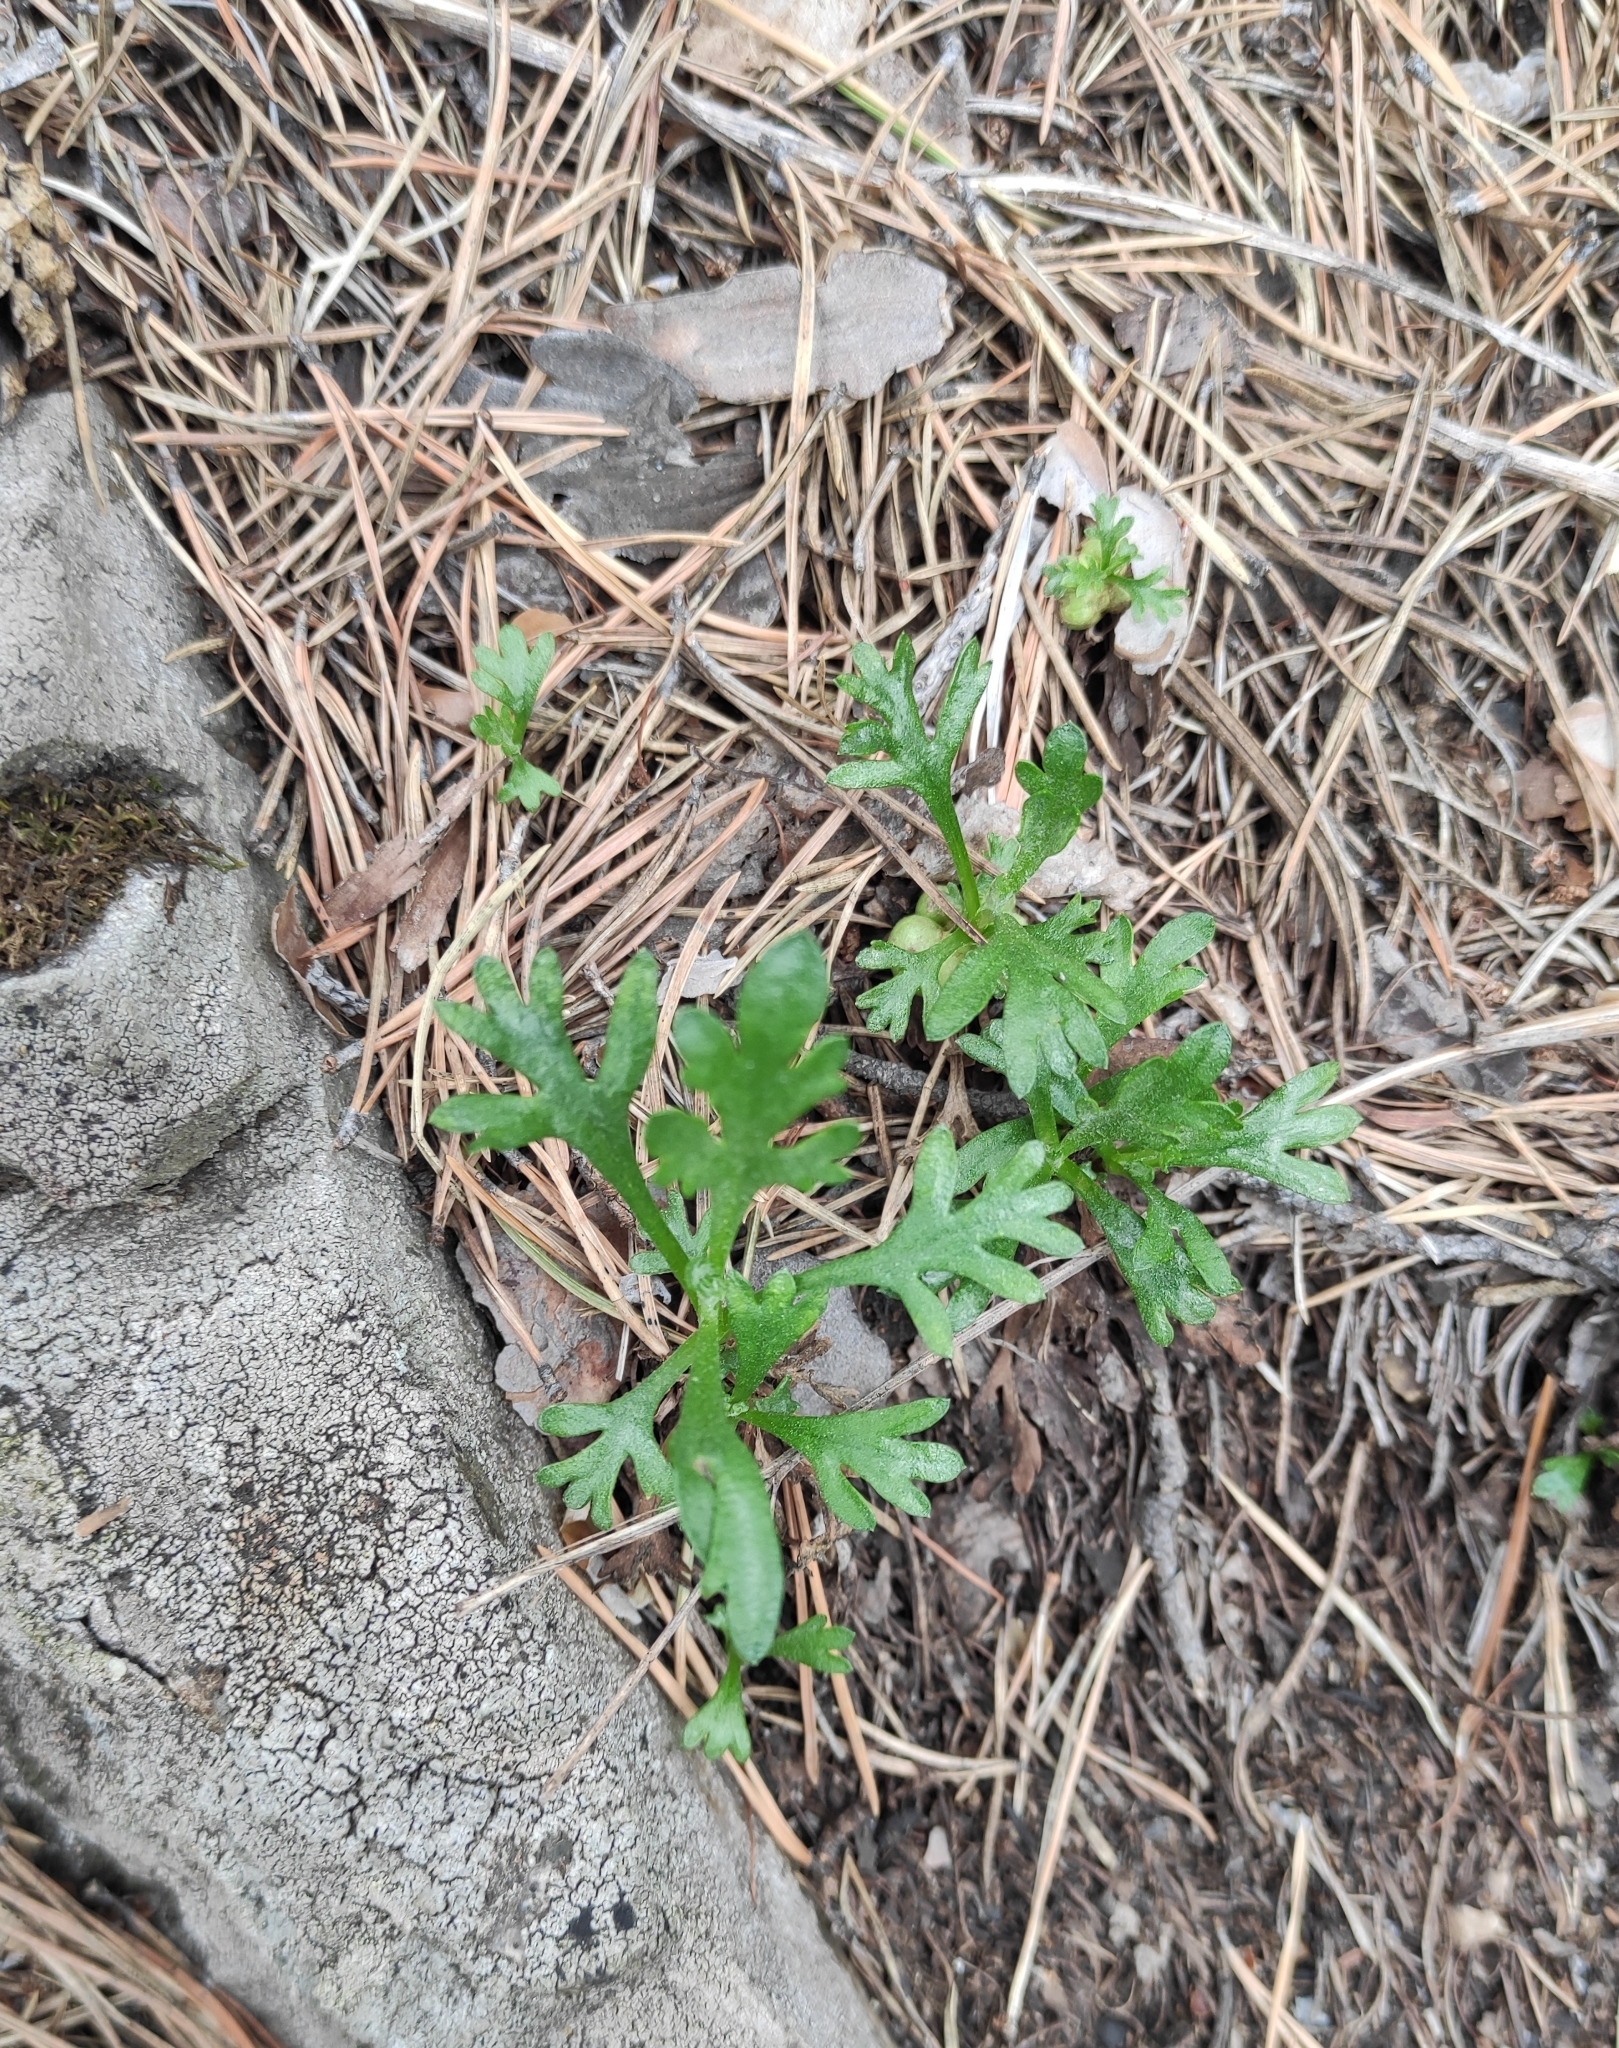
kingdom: Plantae
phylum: Tracheophyta
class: Magnoliopsida
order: Asterales
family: Asteraceae
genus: Chrysanthemum
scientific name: Chrysanthemum zawadzkii
